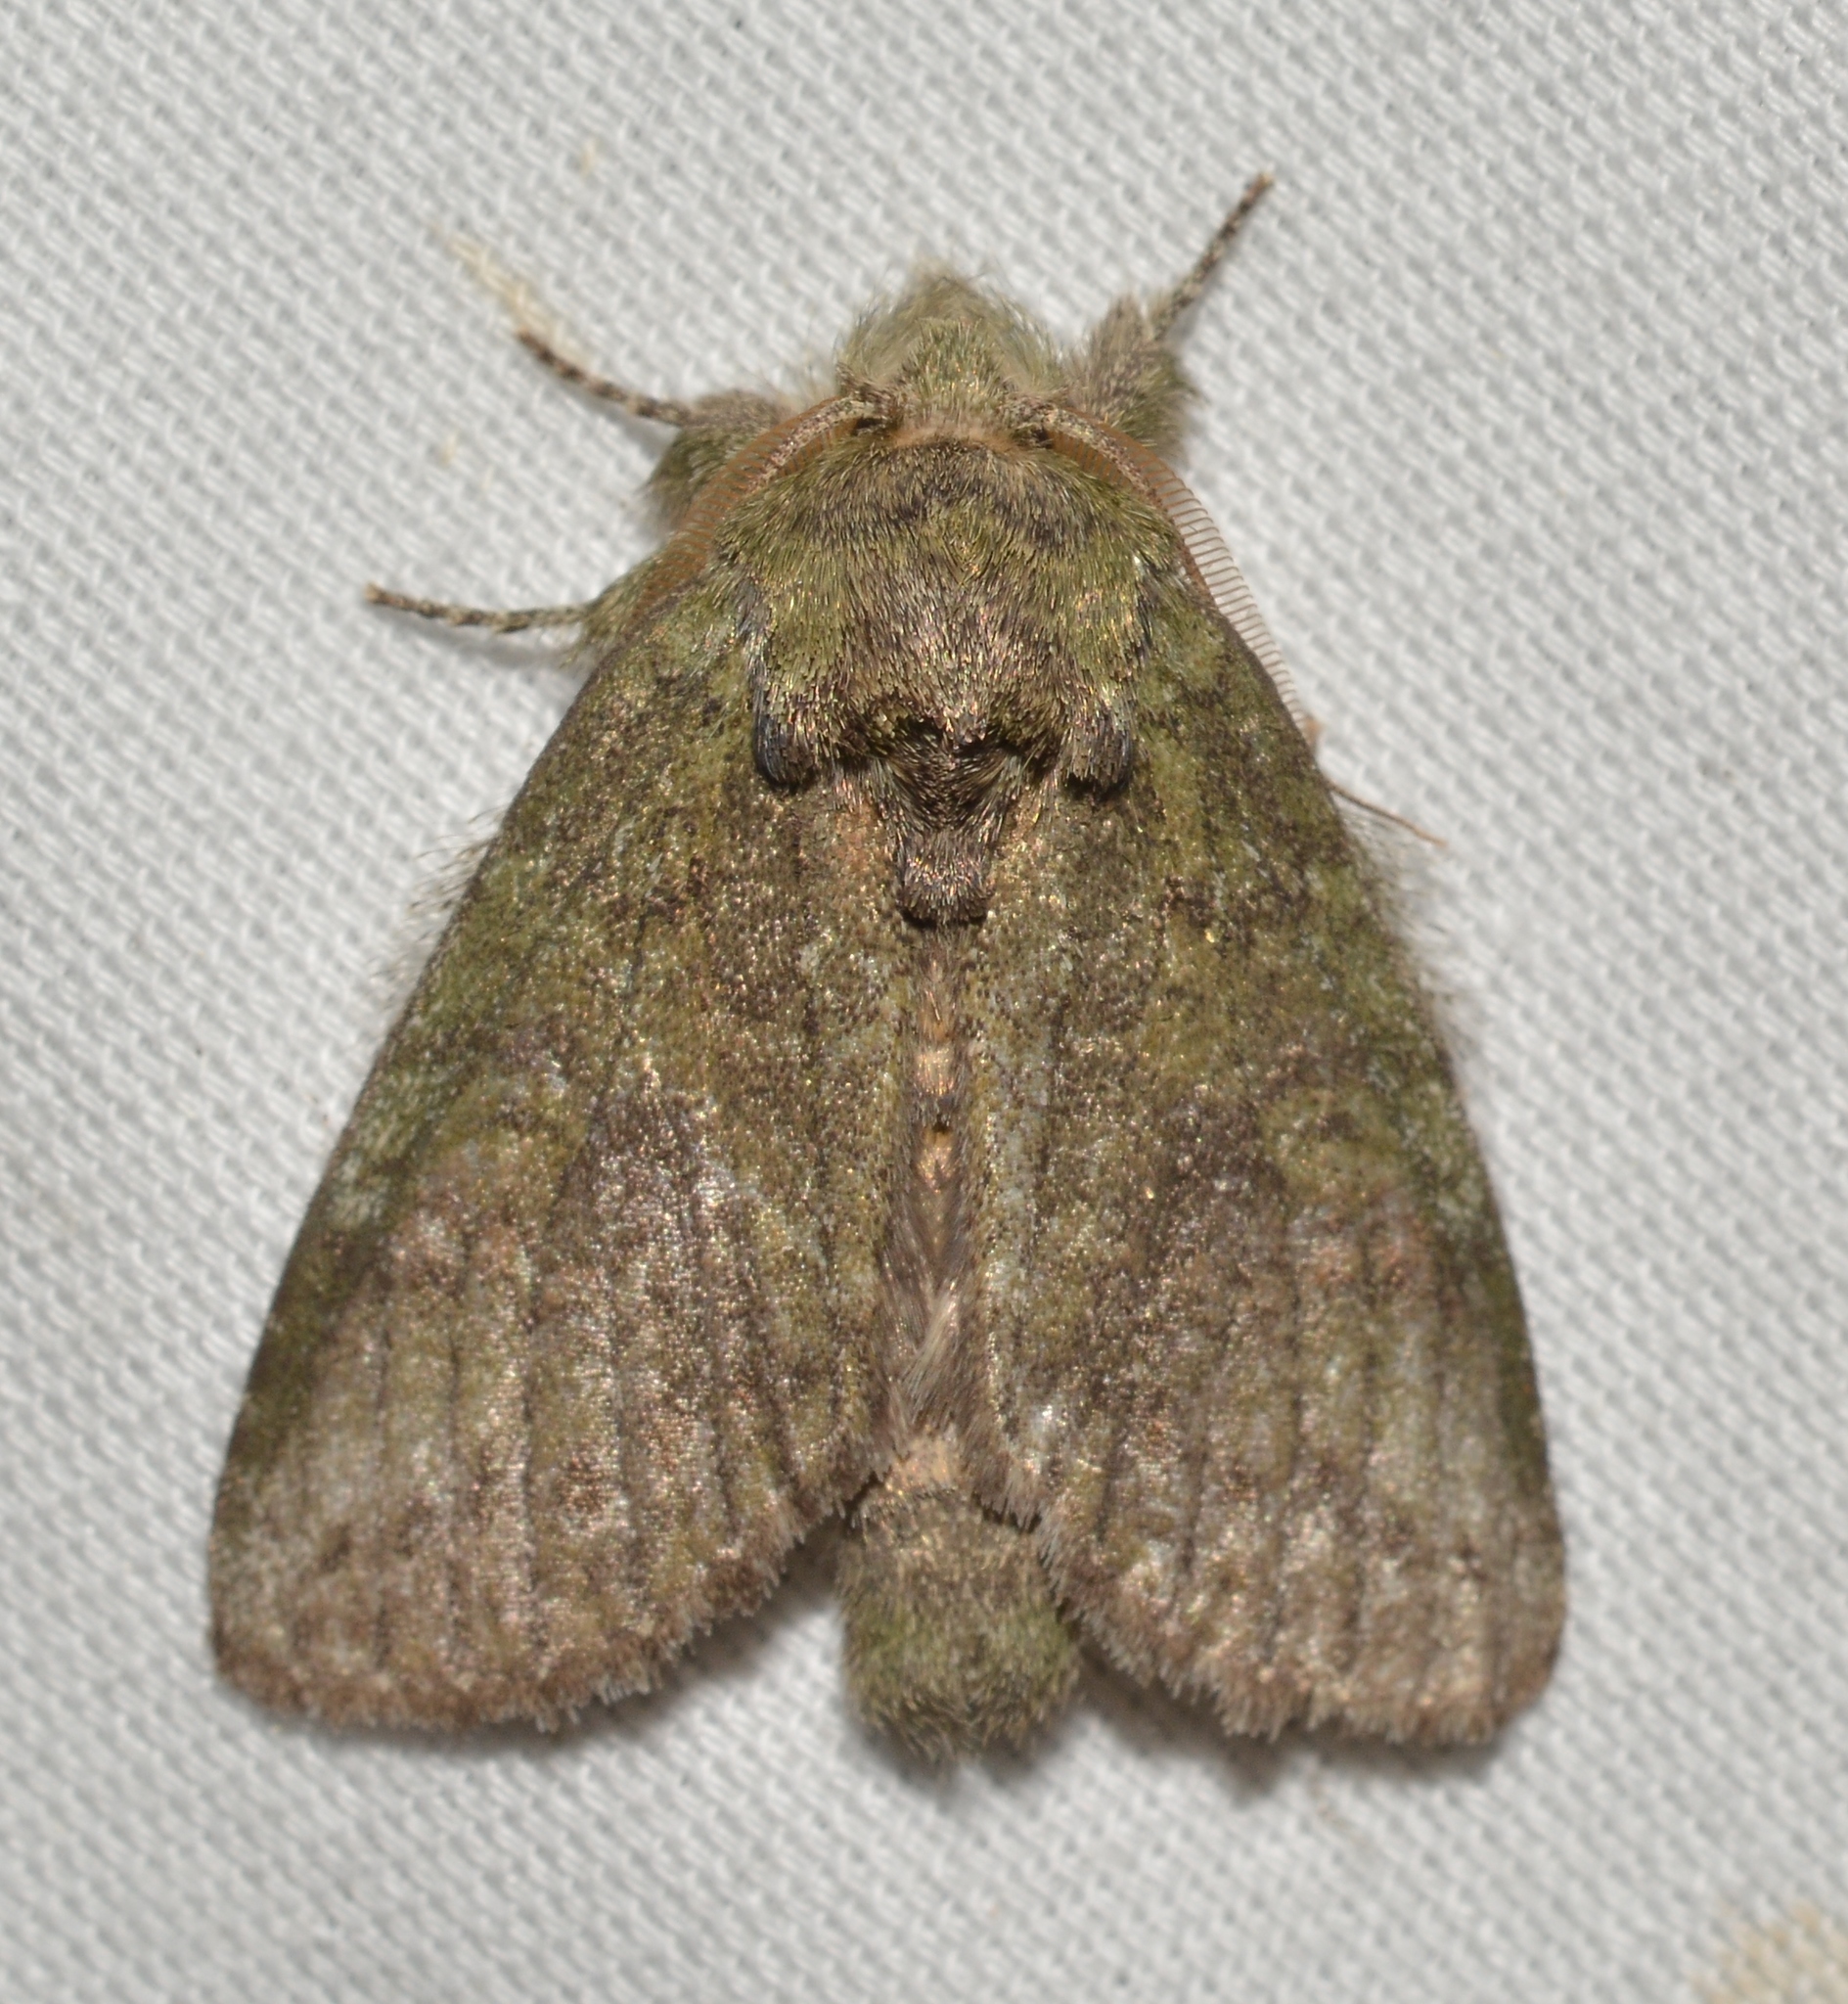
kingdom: Animalia
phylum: Arthropoda
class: Insecta
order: Lepidoptera
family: Notodontidae
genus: Disphragis
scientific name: Disphragis Cecrita guttivitta
